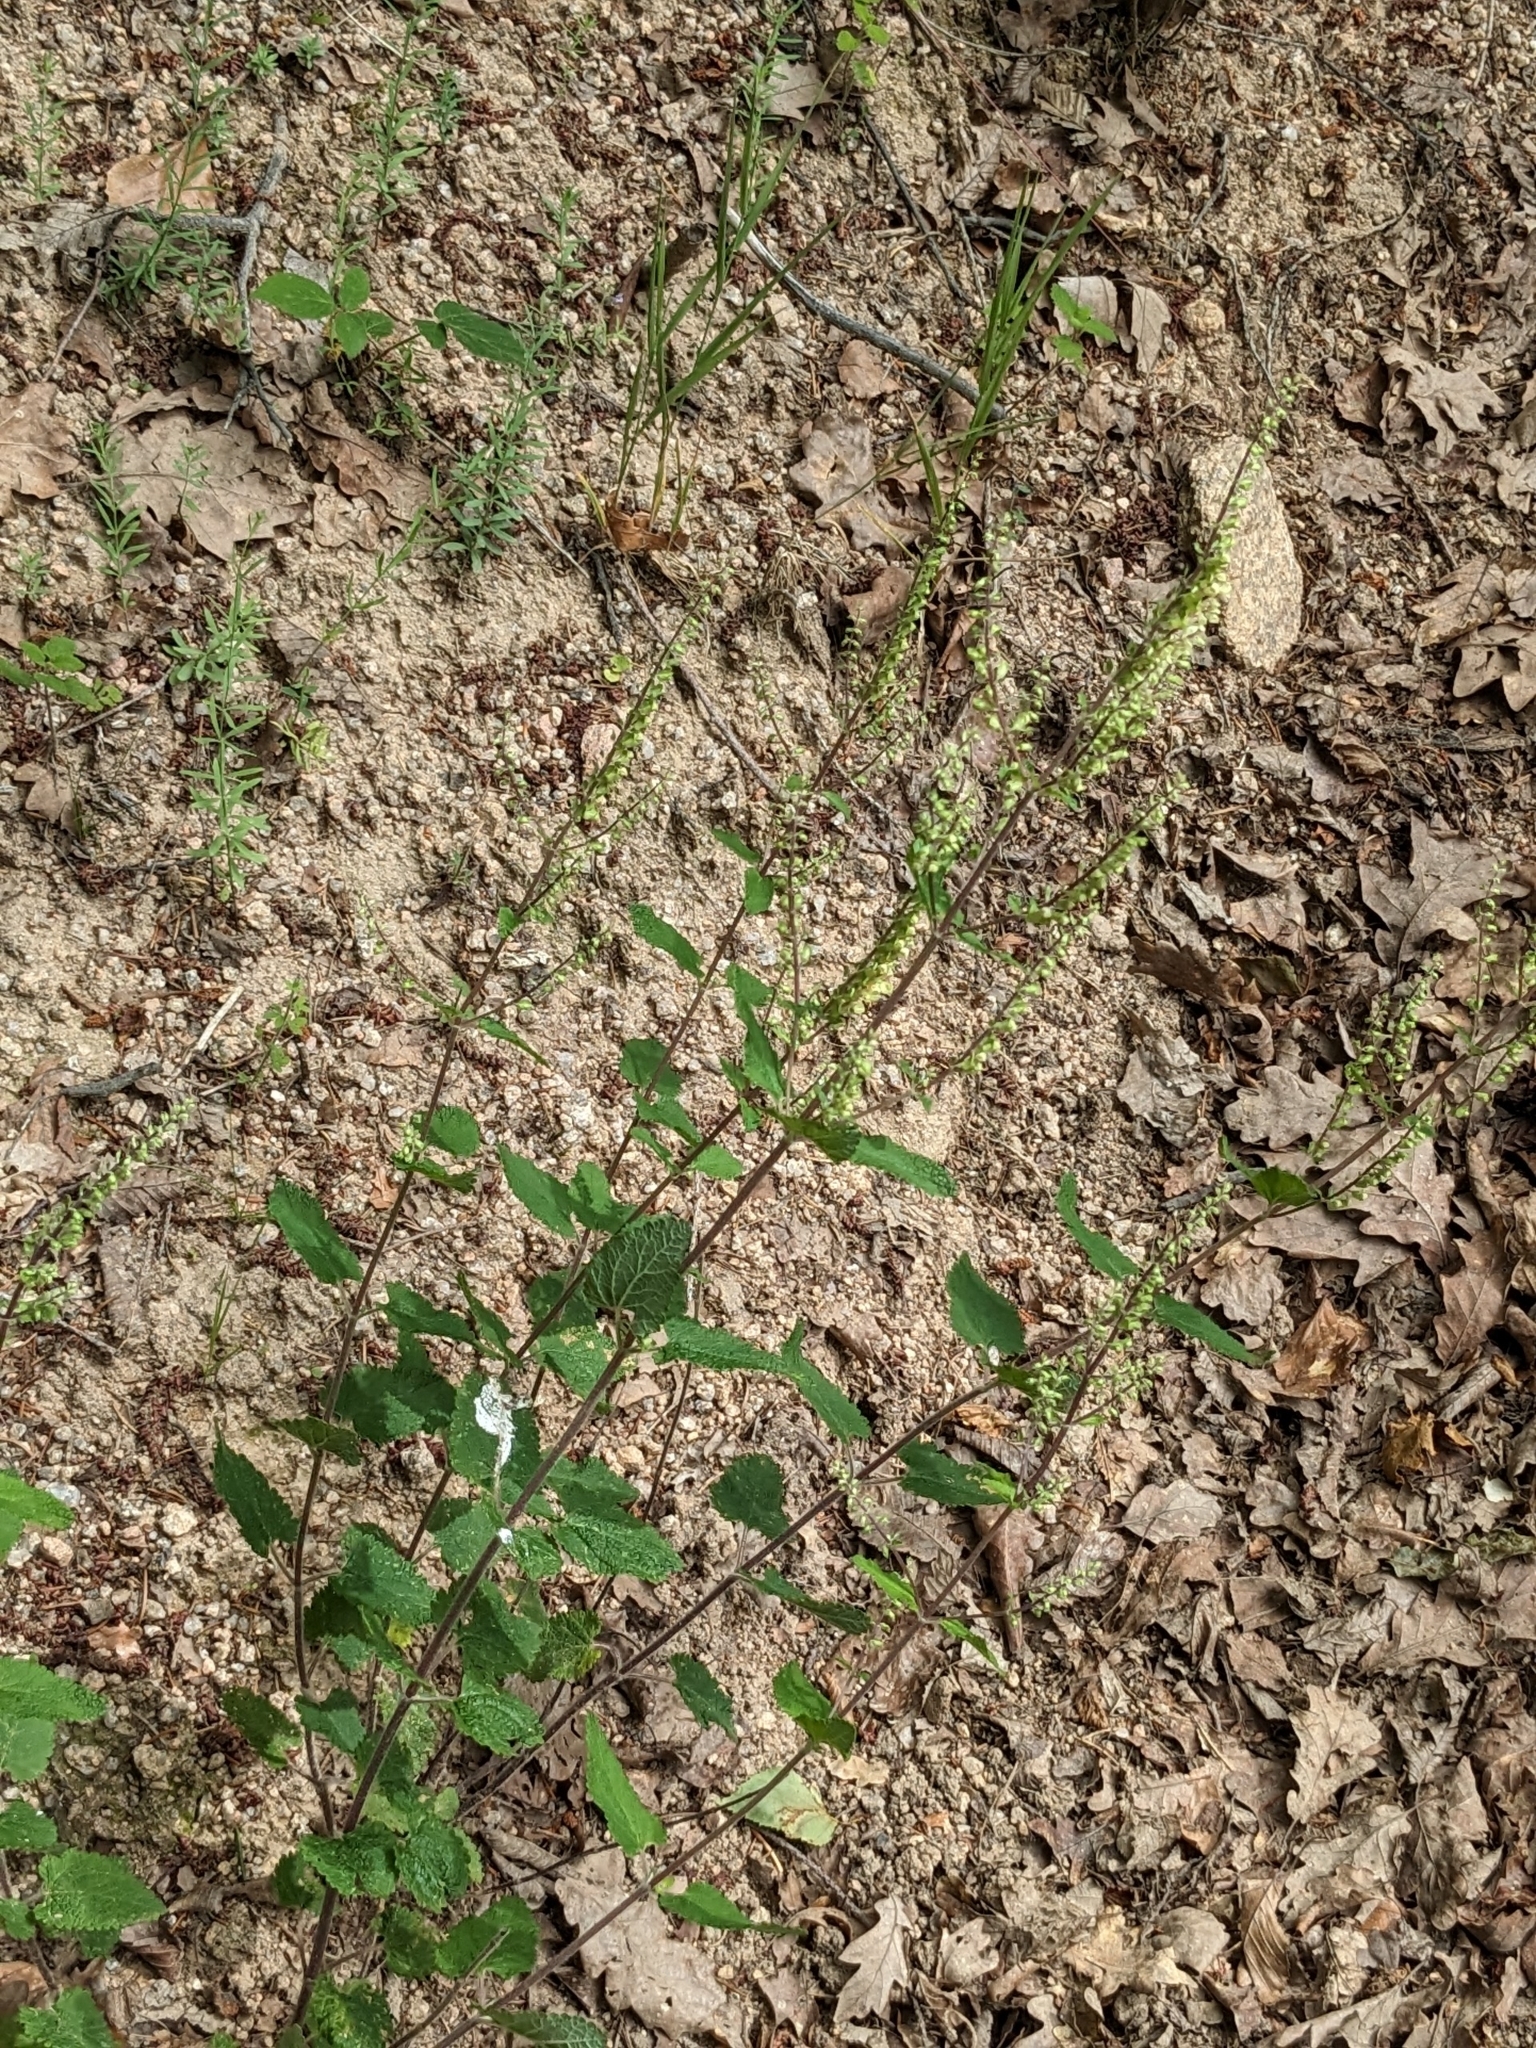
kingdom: Plantae
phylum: Tracheophyta
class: Magnoliopsida
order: Lamiales
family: Lamiaceae
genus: Teucrium
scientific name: Teucrium scorodonia
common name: Woodland germander
